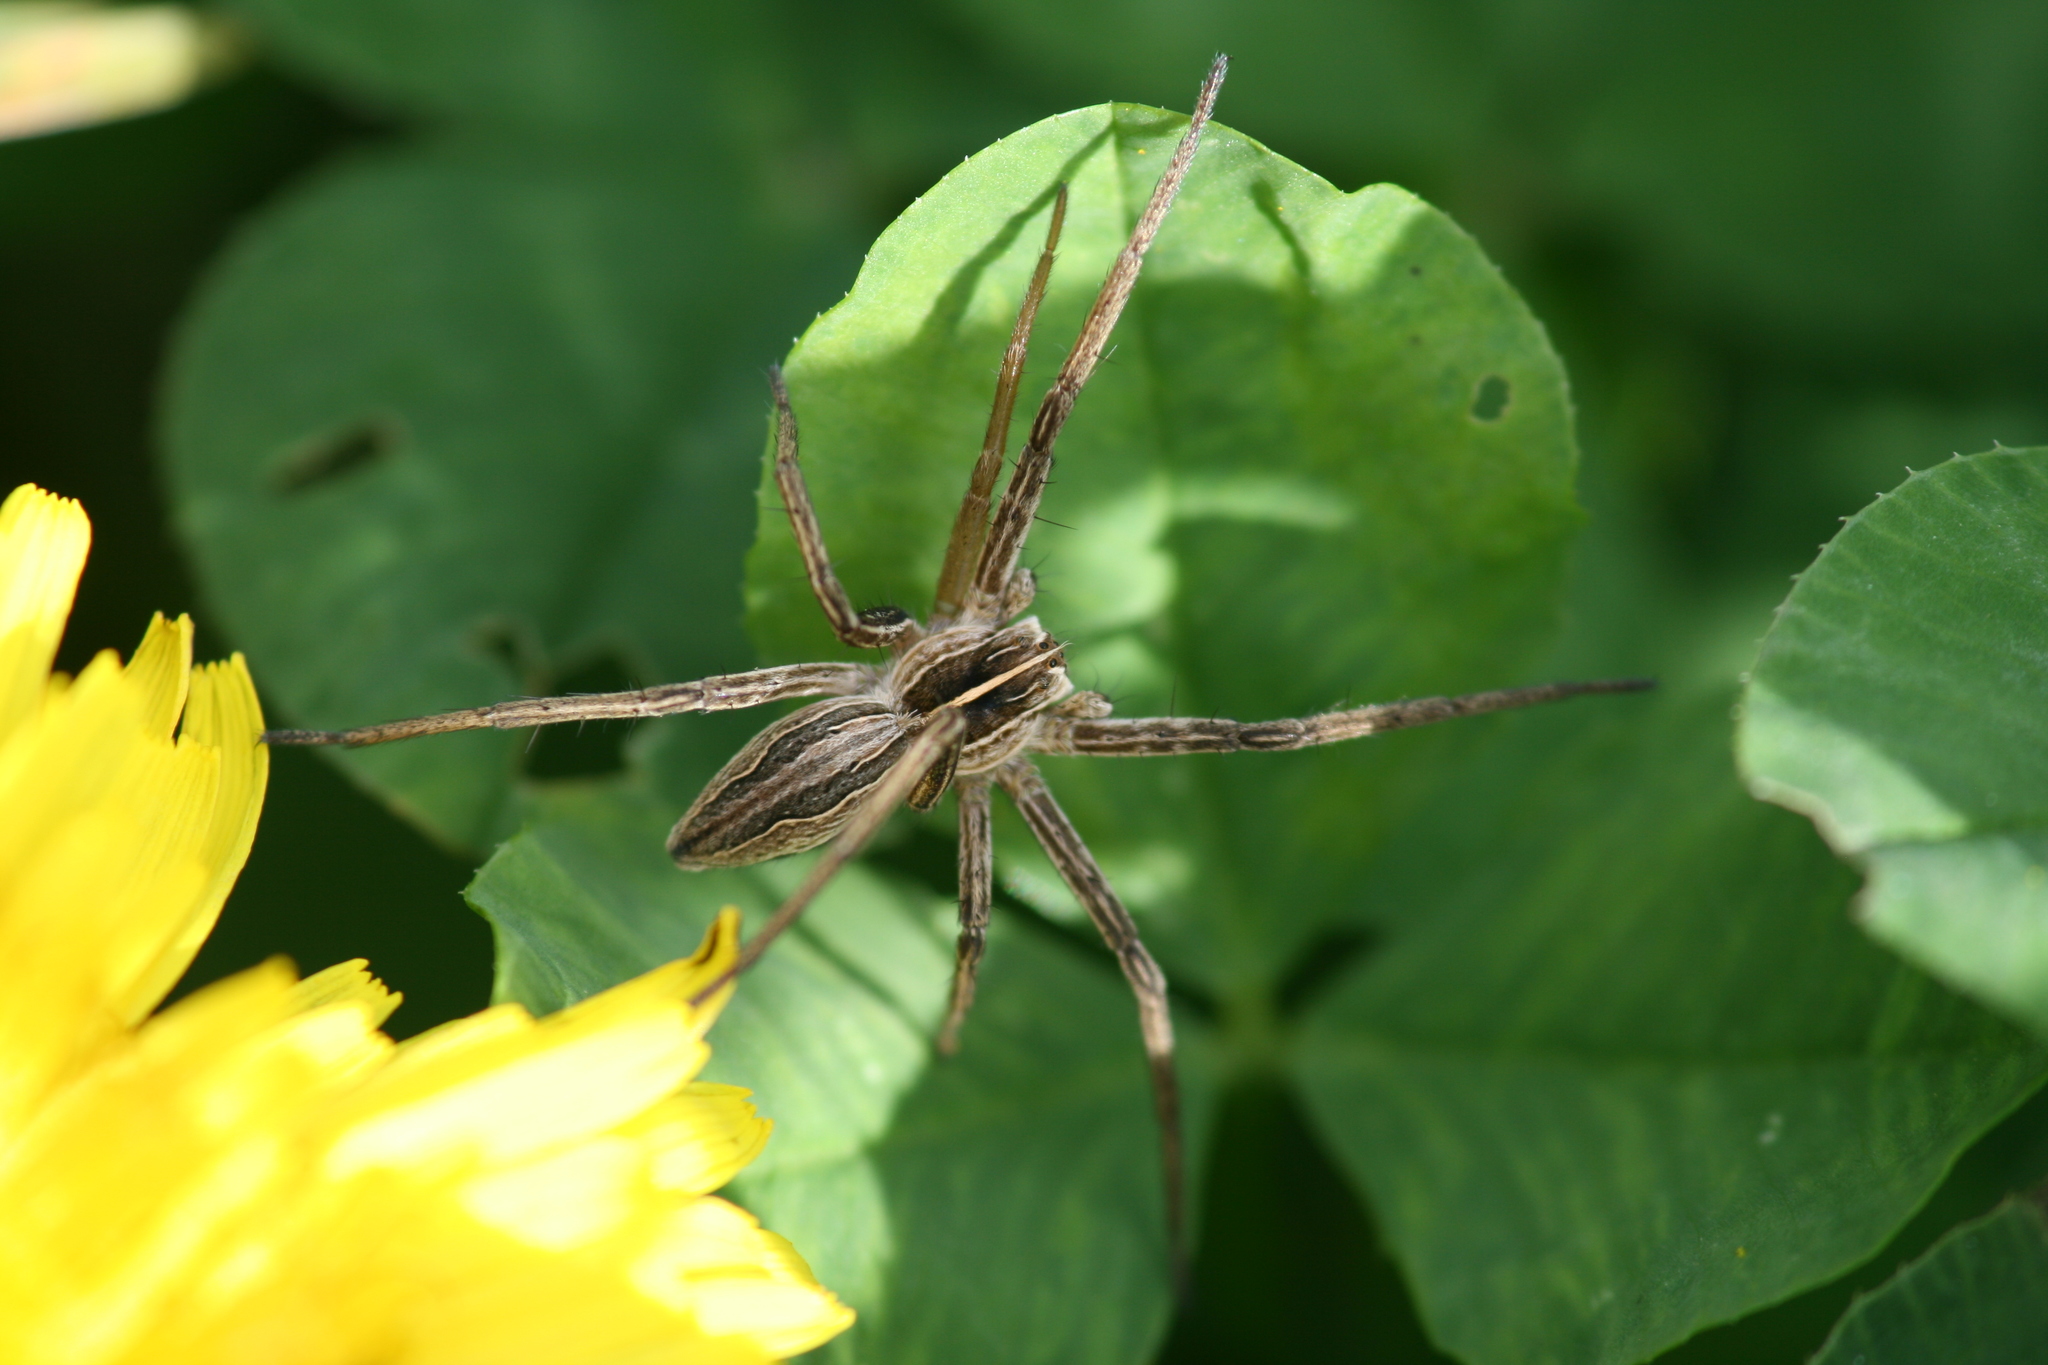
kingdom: Animalia
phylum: Arthropoda
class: Arachnida
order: Araneae
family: Pisauridae
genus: Pisaura
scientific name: Pisaura mirabilis
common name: Tent spider
